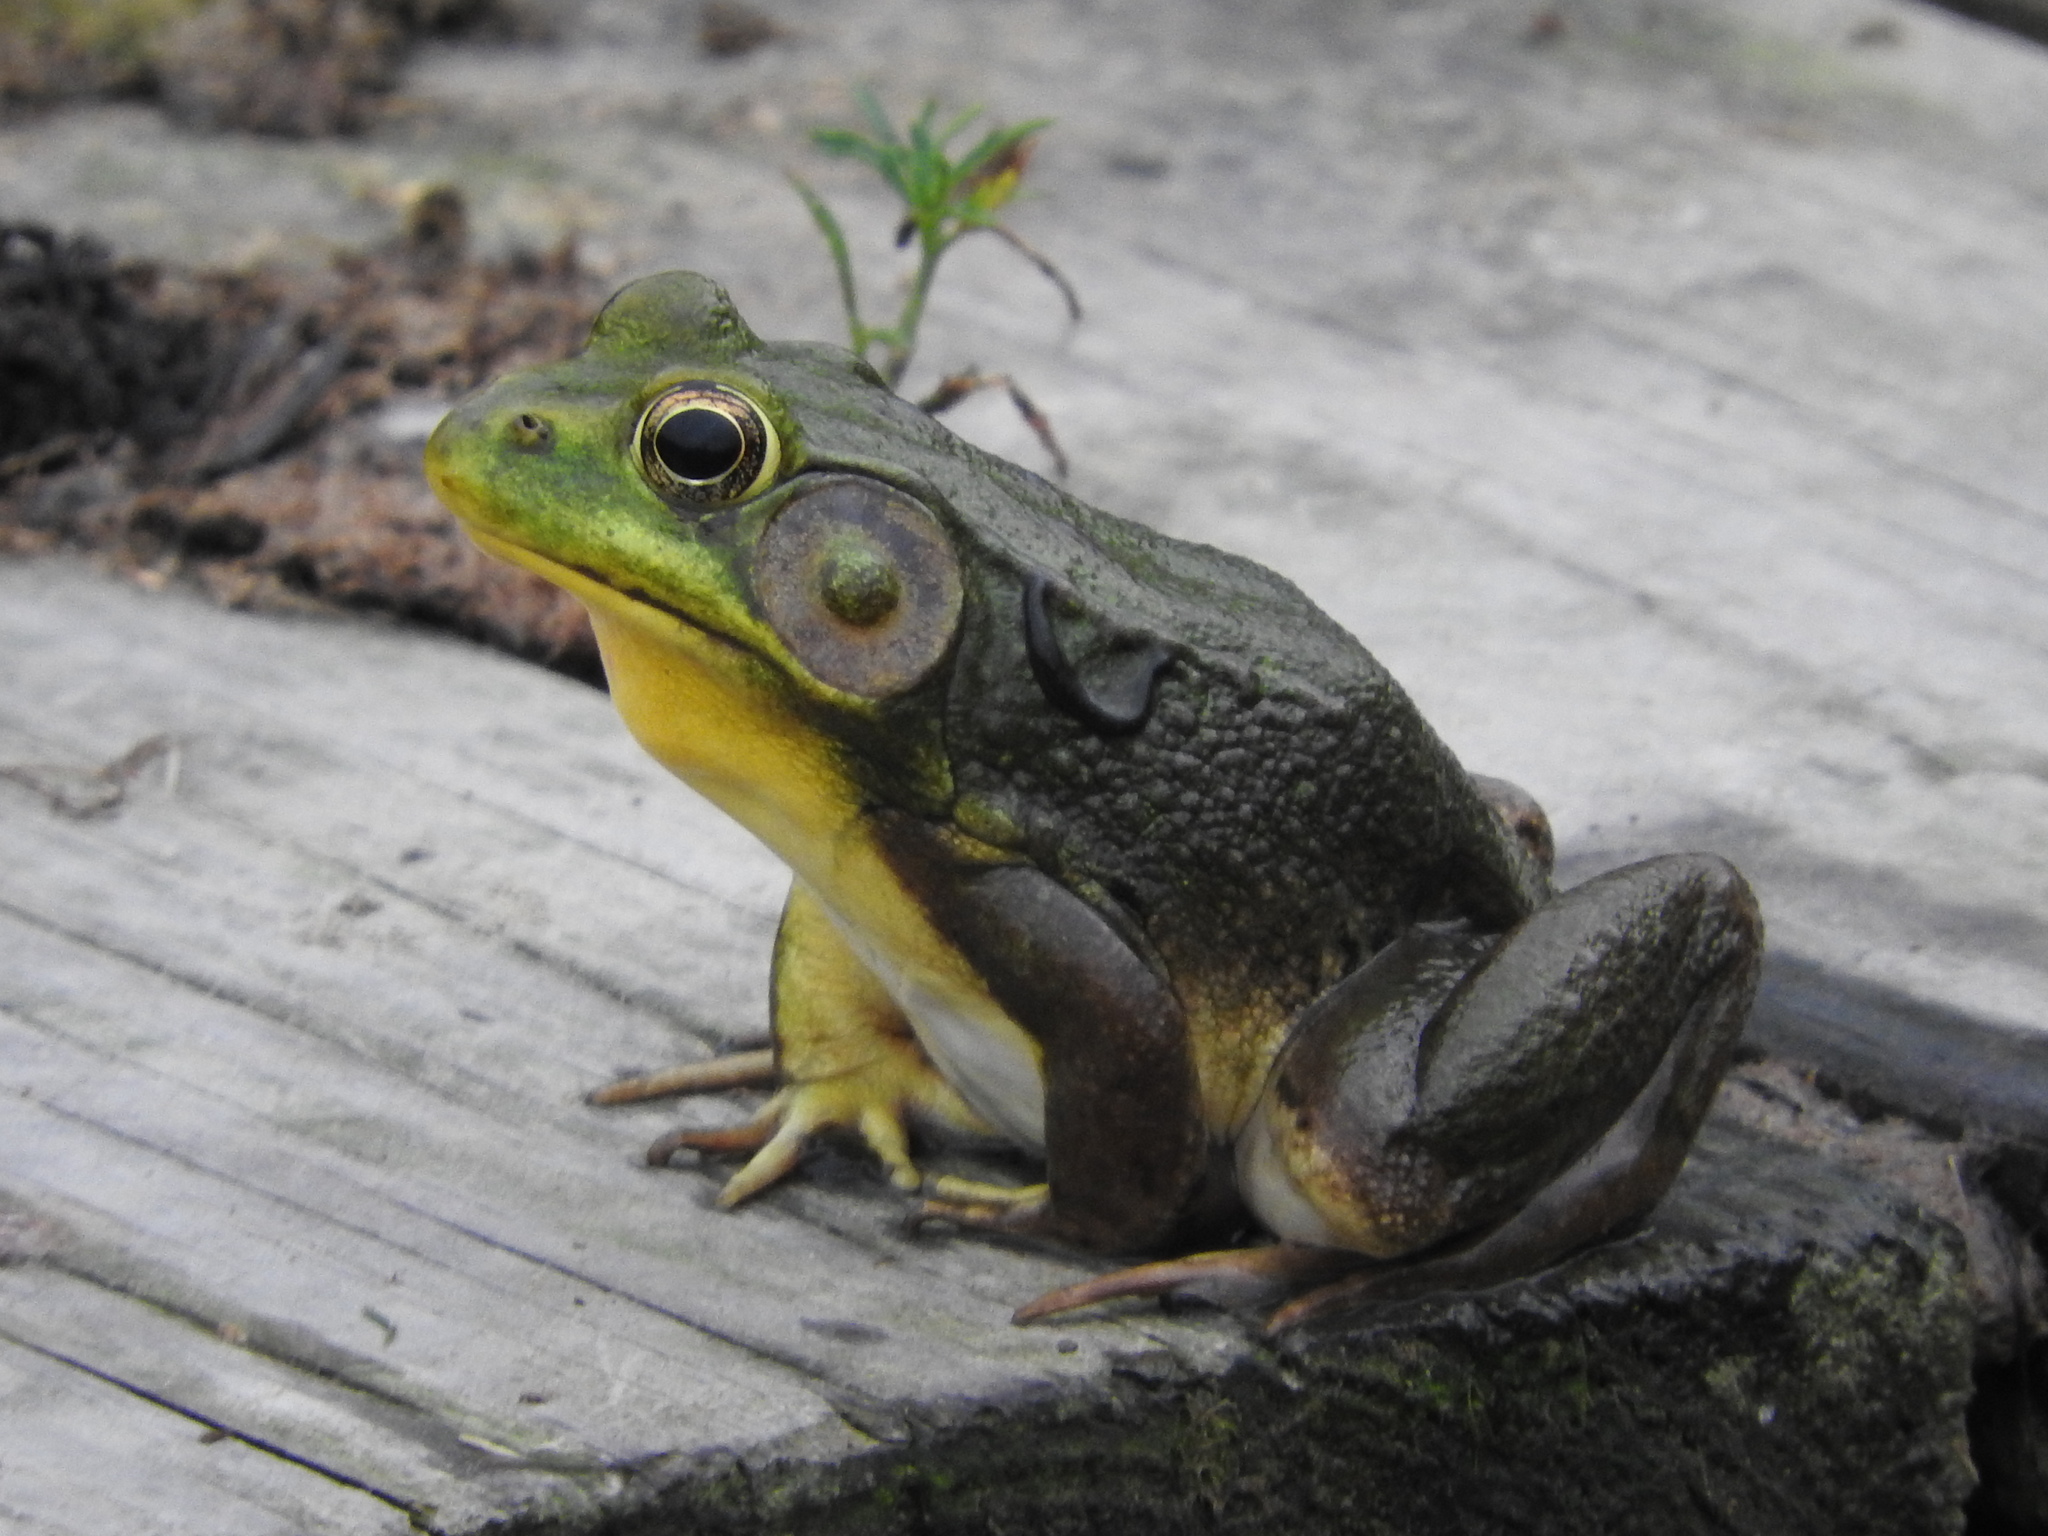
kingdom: Animalia
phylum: Chordata
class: Amphibia
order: Anura
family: Ranidae
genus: Lithobates
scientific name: Lithobates clamitans
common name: Green frog
